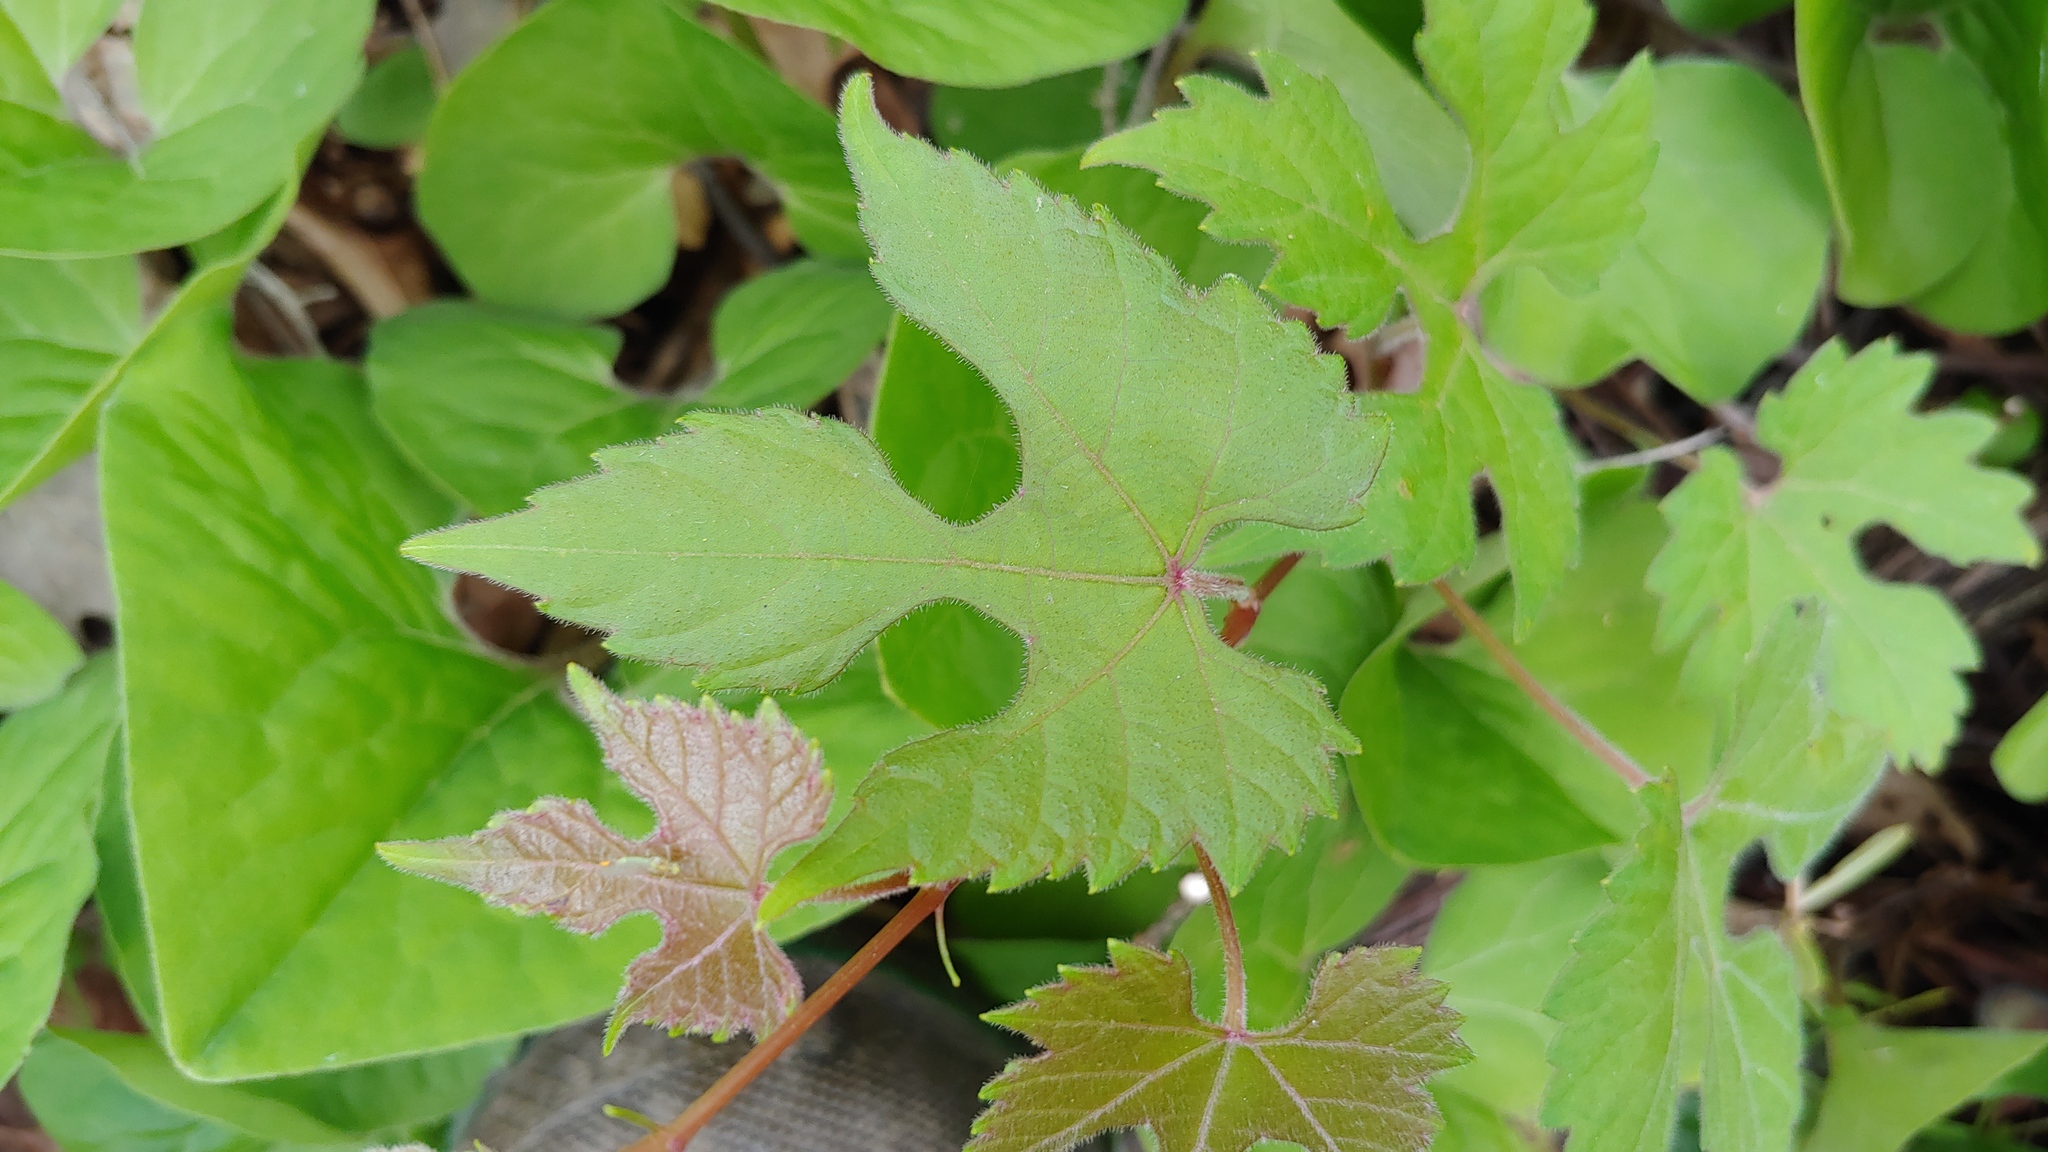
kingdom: Plantae
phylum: Tracheophyta
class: Magnoliopsida
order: Vitales
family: Vitaceae
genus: Vitis
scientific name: Vitis aestivalis
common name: Pigeon grape
